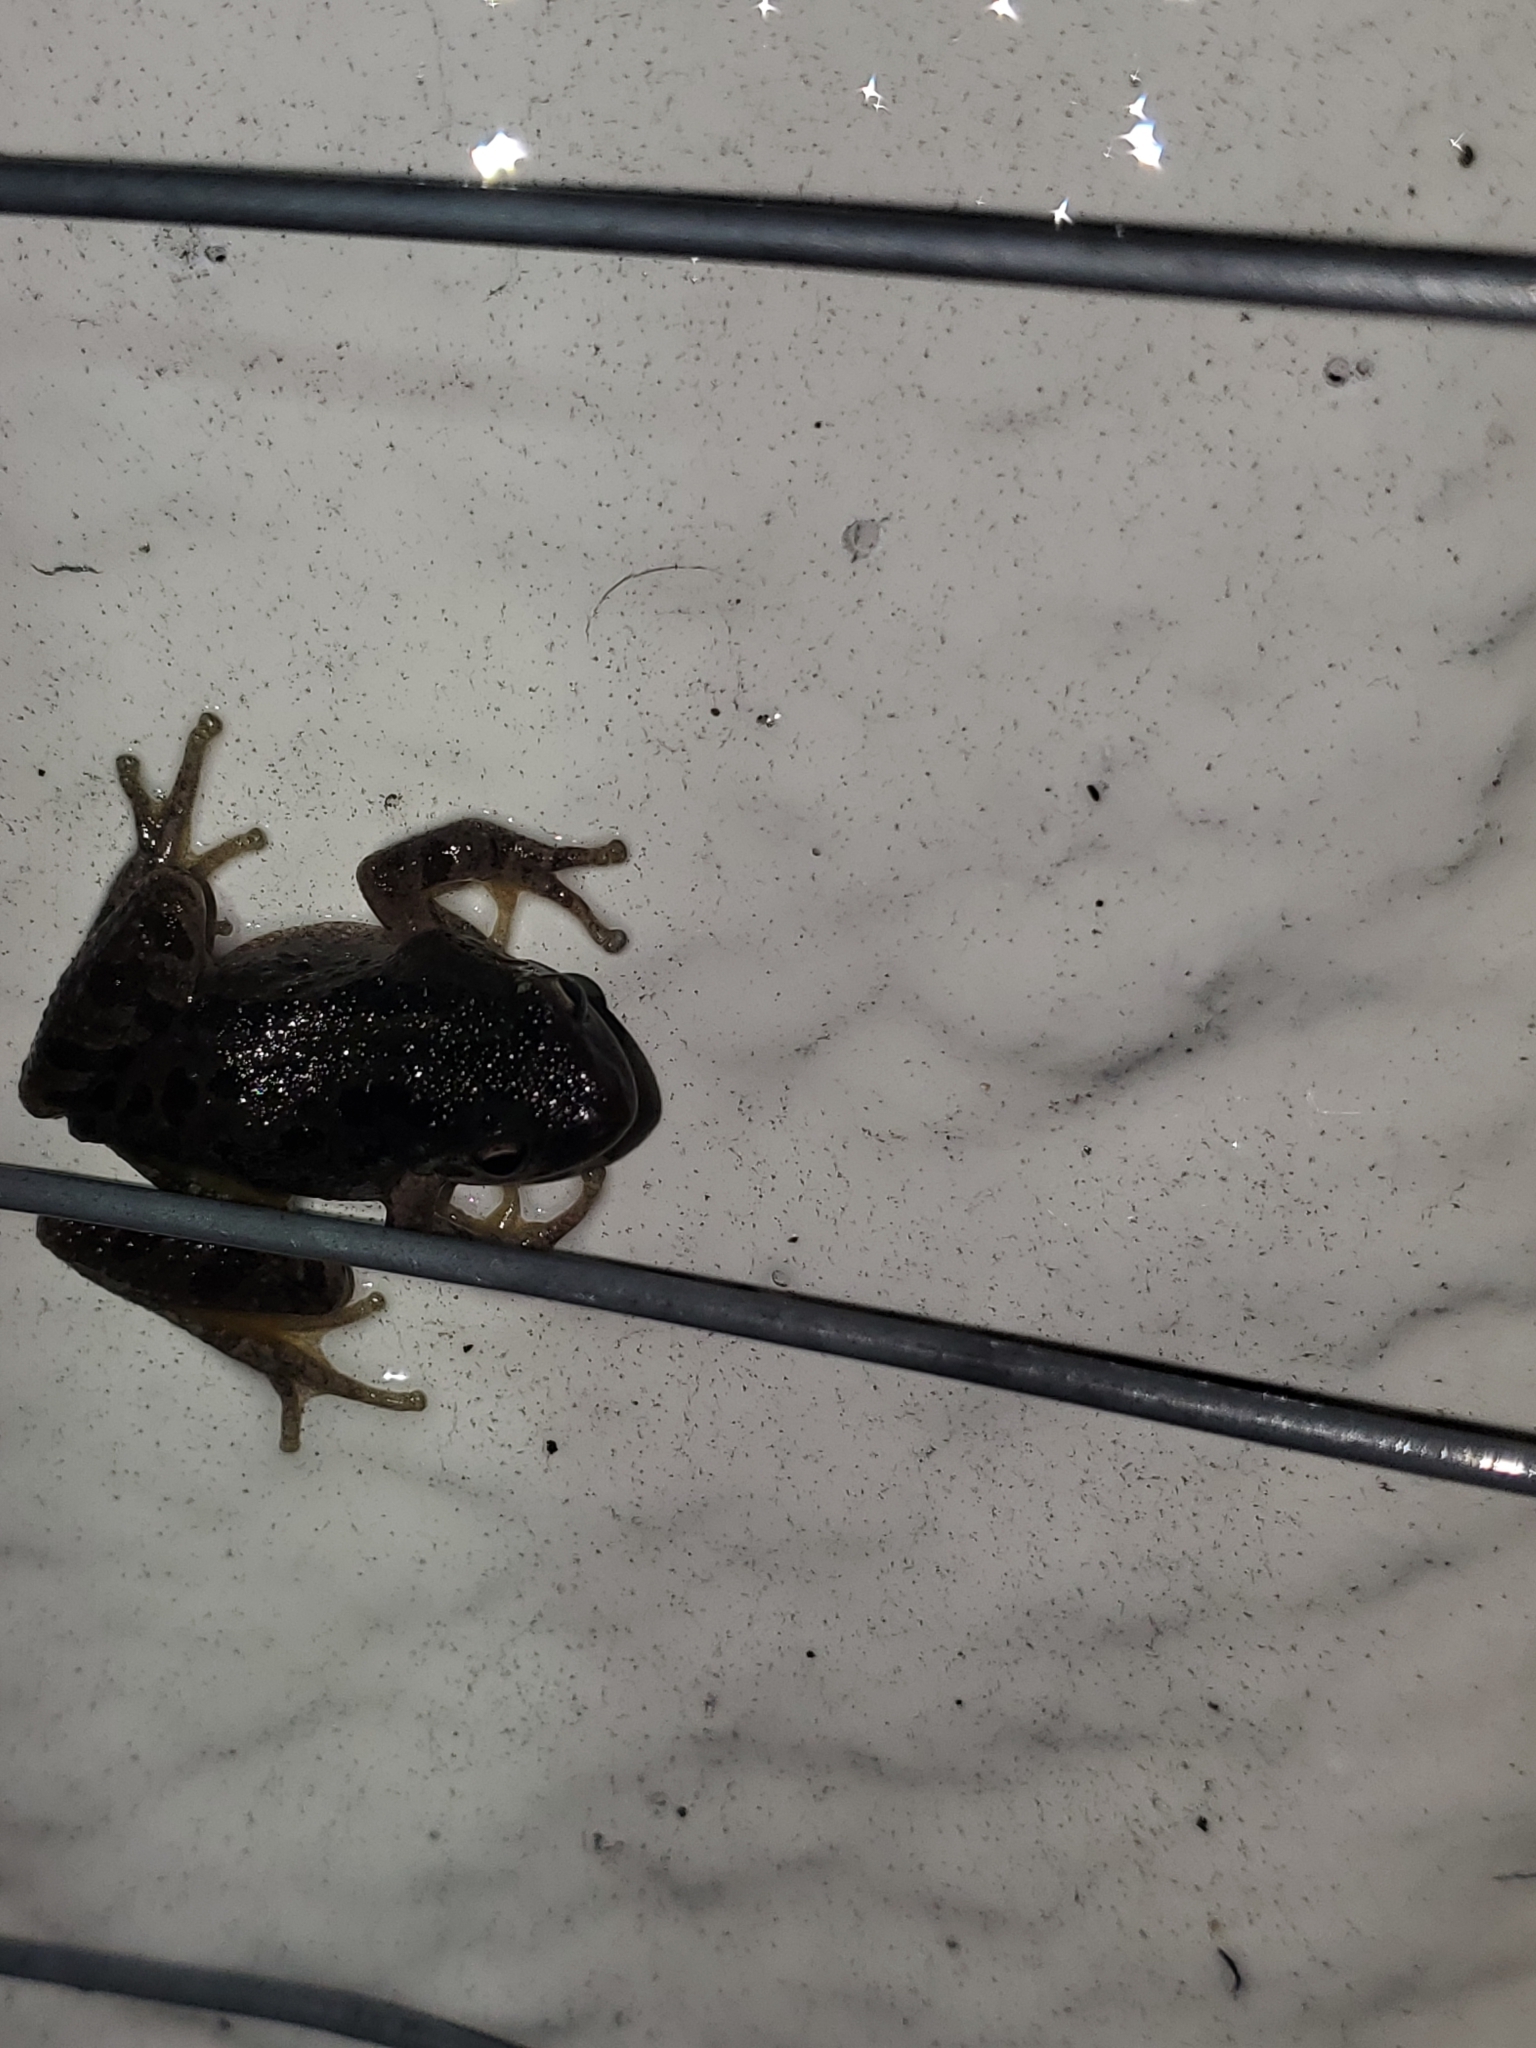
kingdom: Animalia
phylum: Chordata
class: Amphibia
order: Anura
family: Hylidae
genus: Pseudacris
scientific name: Pseudacris regilla
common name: Pacific chorus frog
